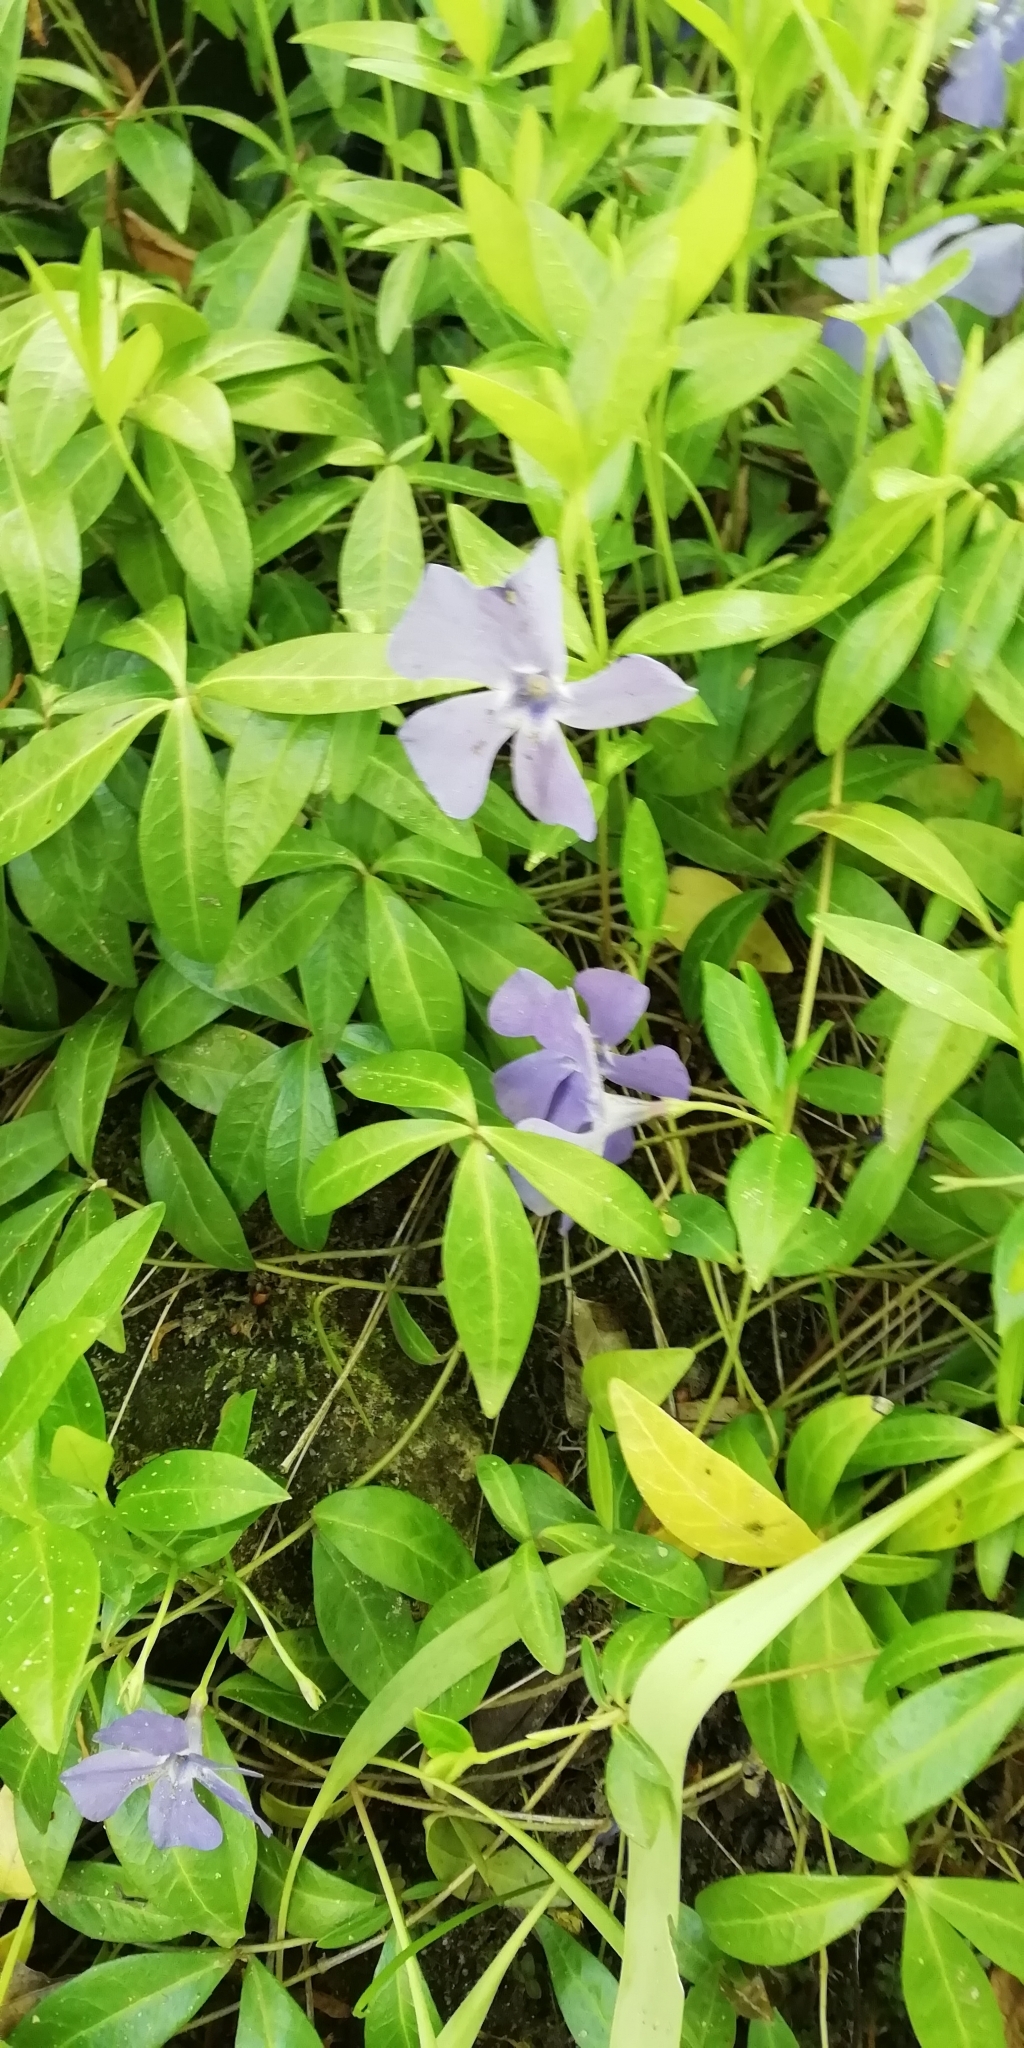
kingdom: Plantae
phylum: Tracheophyta
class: Magnoliopsida
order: Gentianales
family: Apocynaceae
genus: Vinca
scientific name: Vinca minor
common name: Lesser periwinkle
